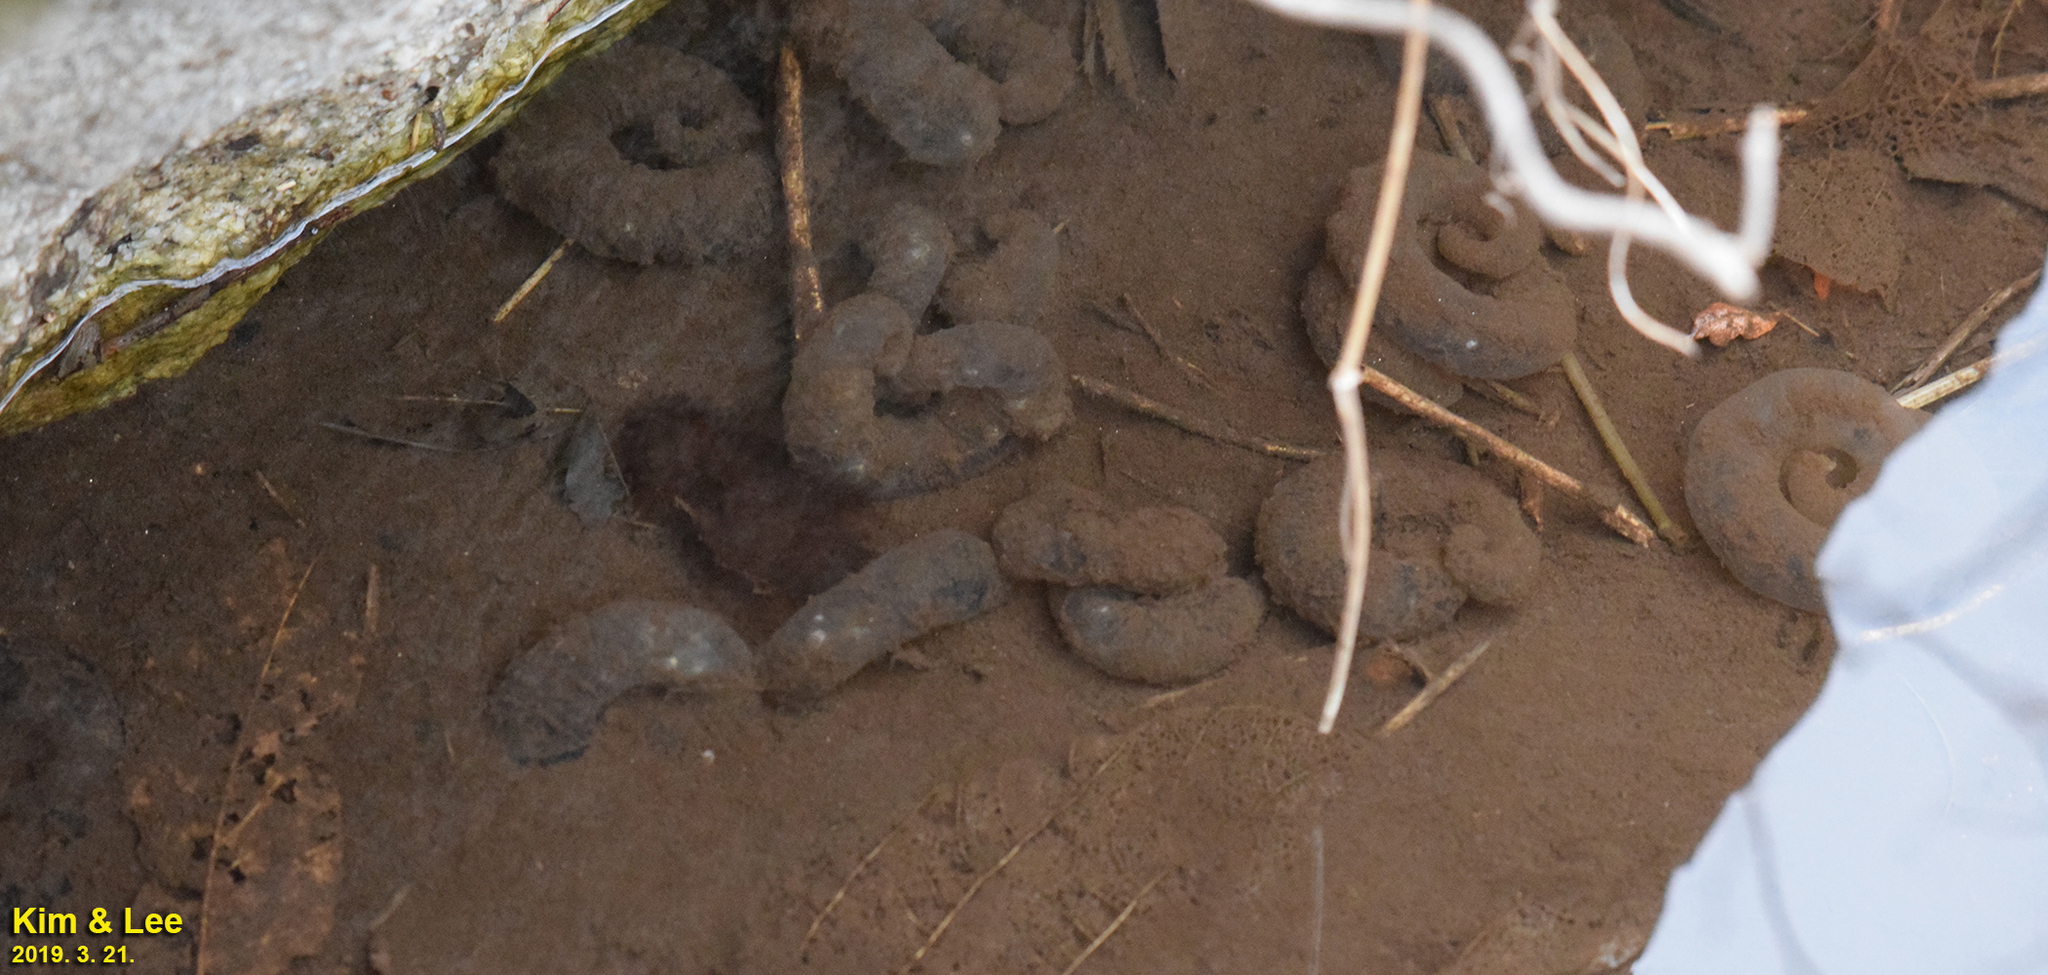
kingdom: Animalia
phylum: Chordata
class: Amphibia
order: Caudata
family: Hynobiidae
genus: Hynobius
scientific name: Hynobius leechii
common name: Gensan salamander
